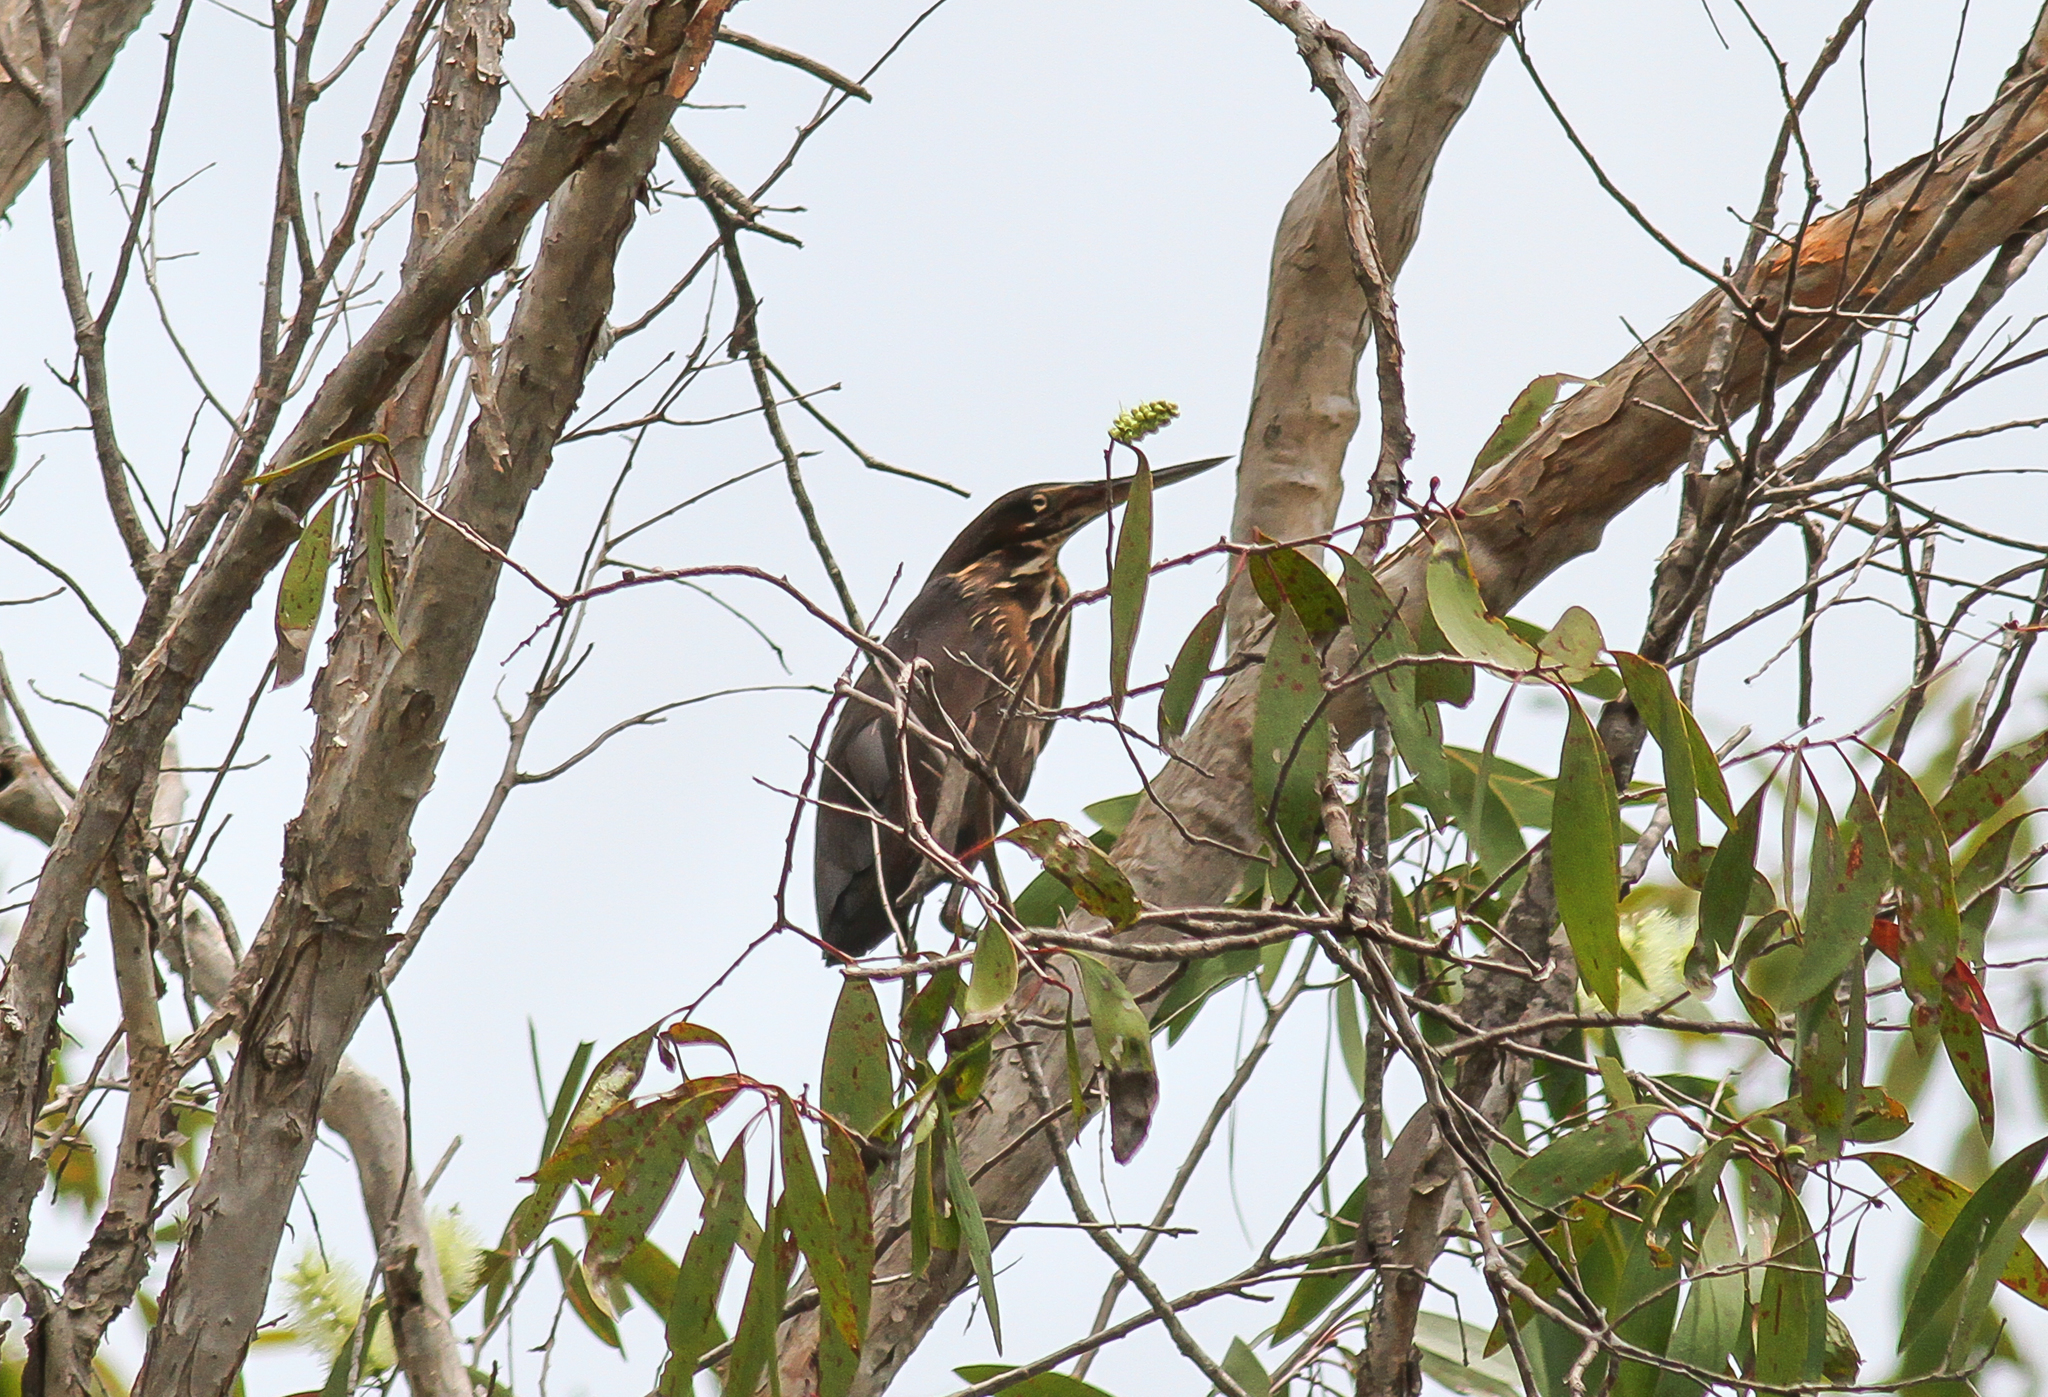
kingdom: Animalia
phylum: Chordata
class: Aves
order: Pelecaniformes
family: Ardeidae
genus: Dupetor
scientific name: Dupetor flavicollis
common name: Black bittern
